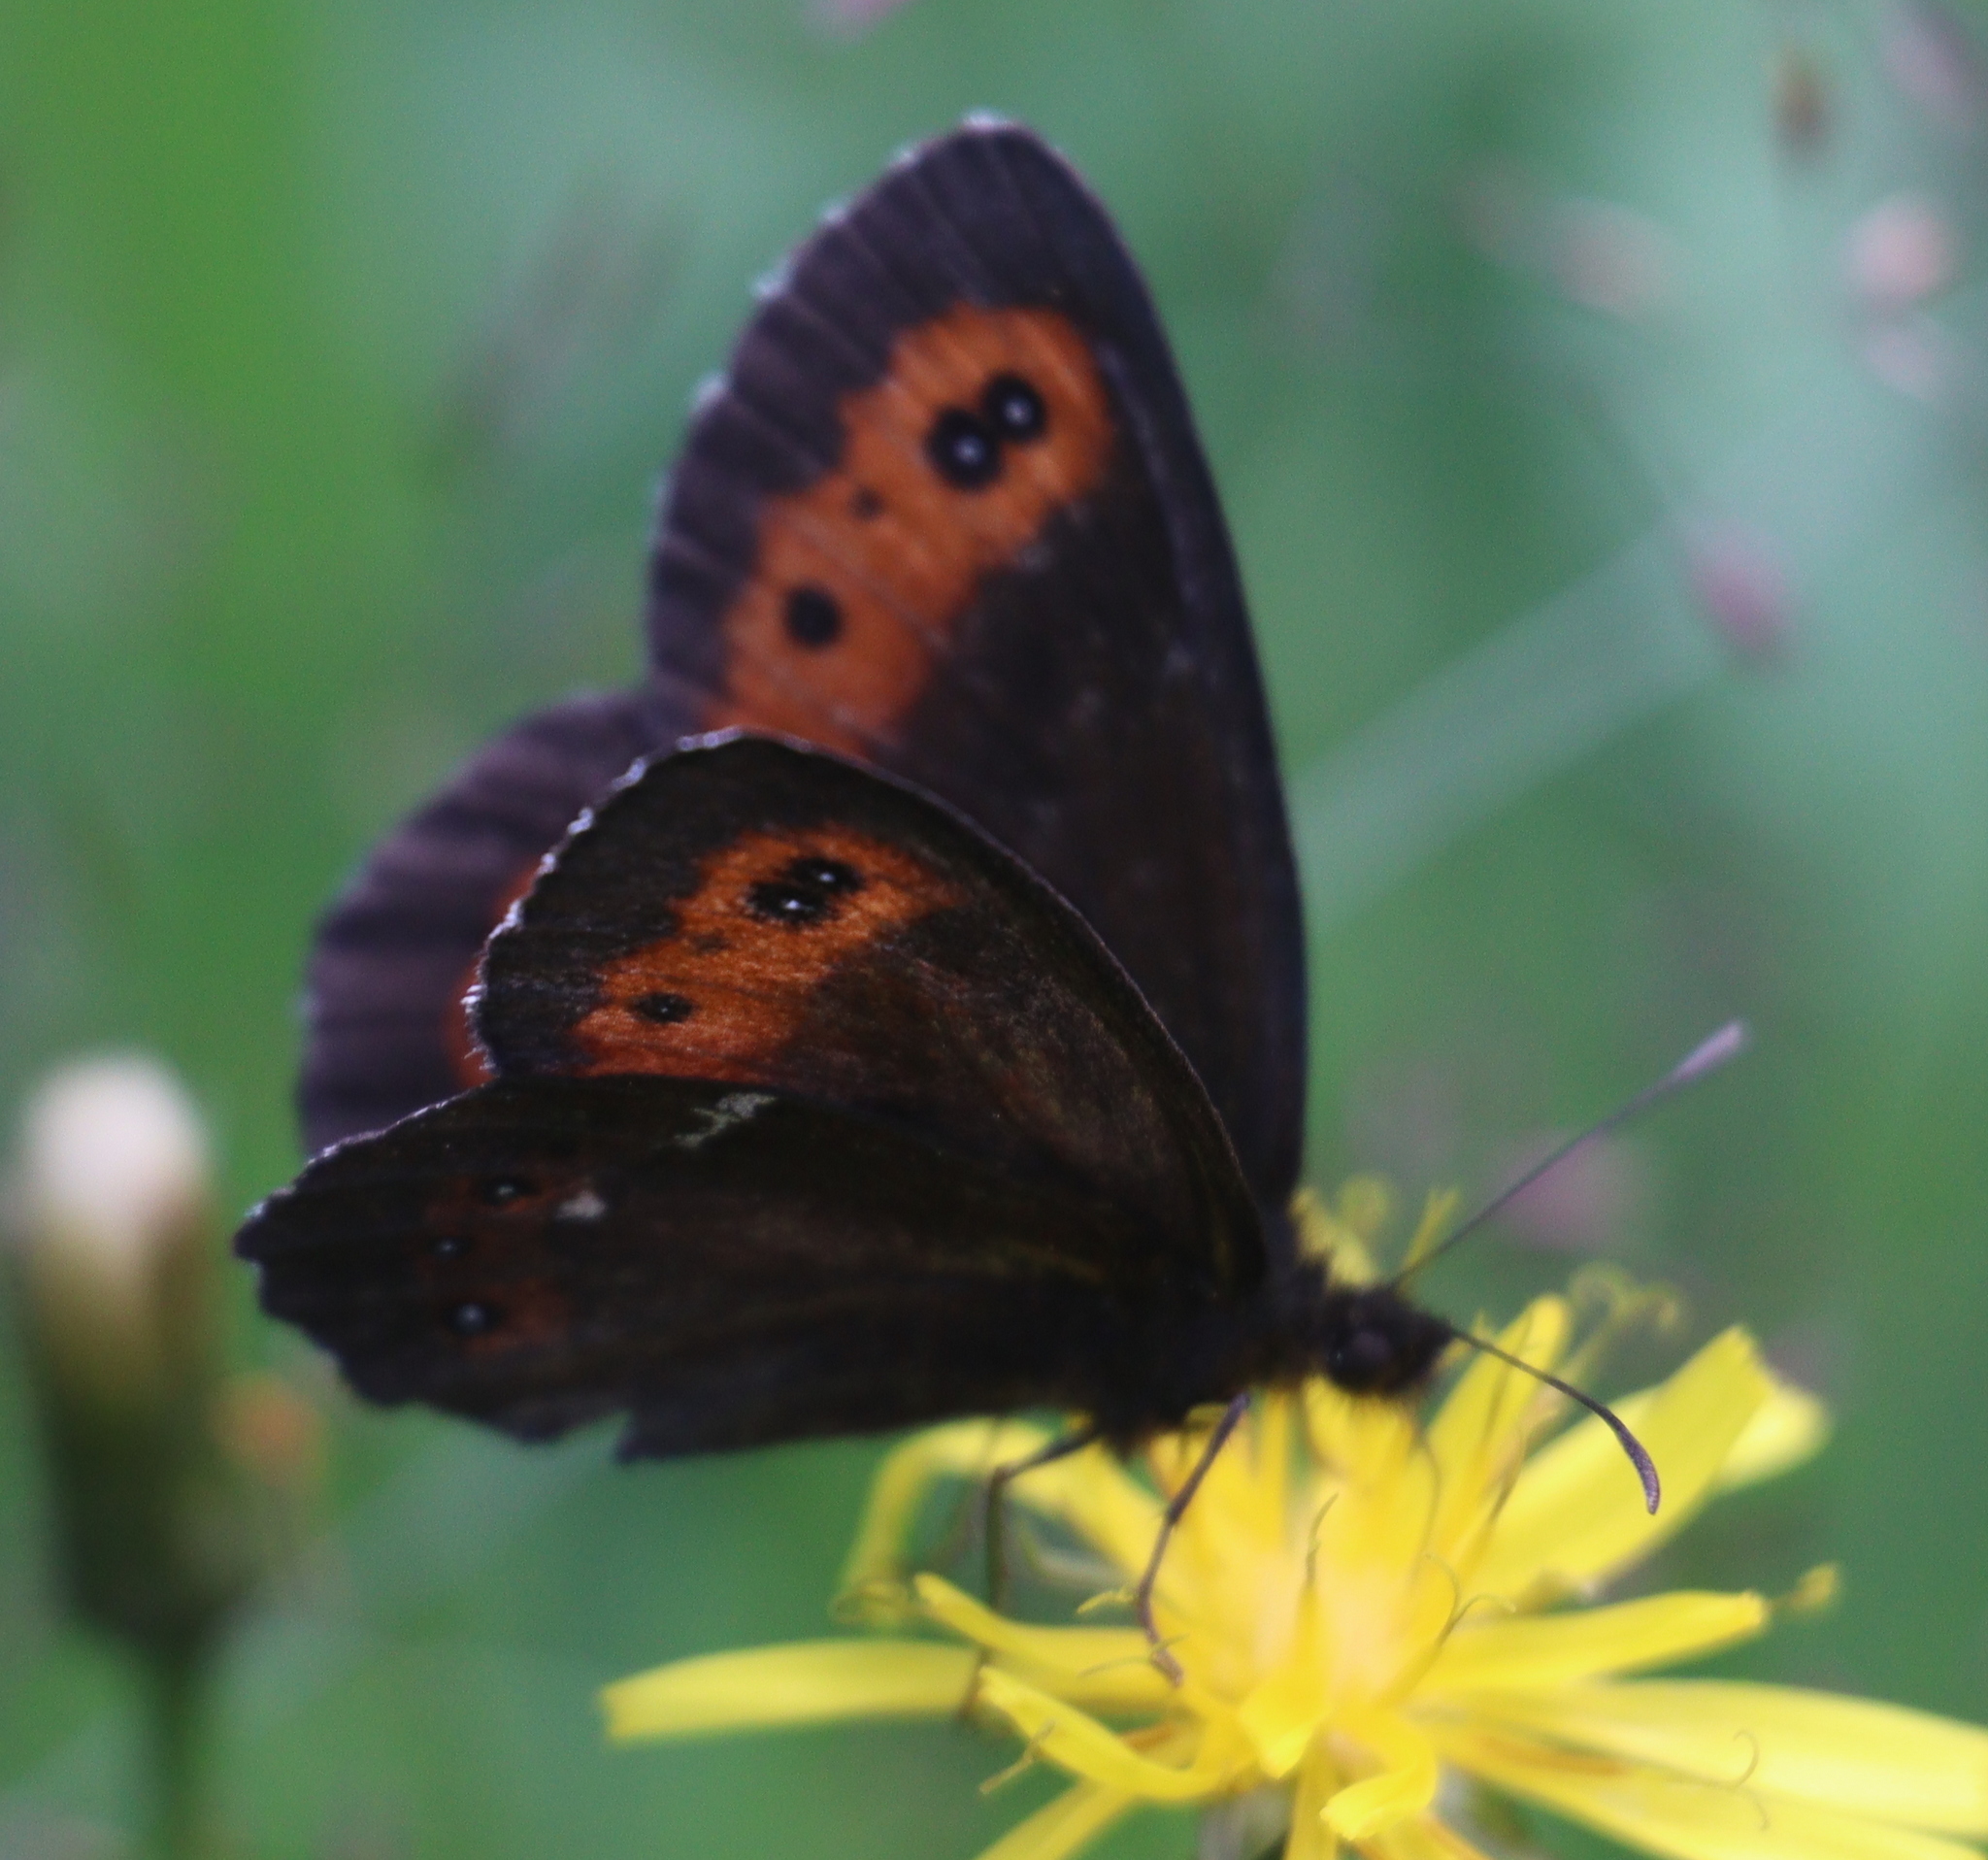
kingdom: Animalia
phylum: Arthropoda
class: Insecta
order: Lepidoptera
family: Nymphalidae
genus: Erebia
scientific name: Erebia ligea
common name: Arran brown
